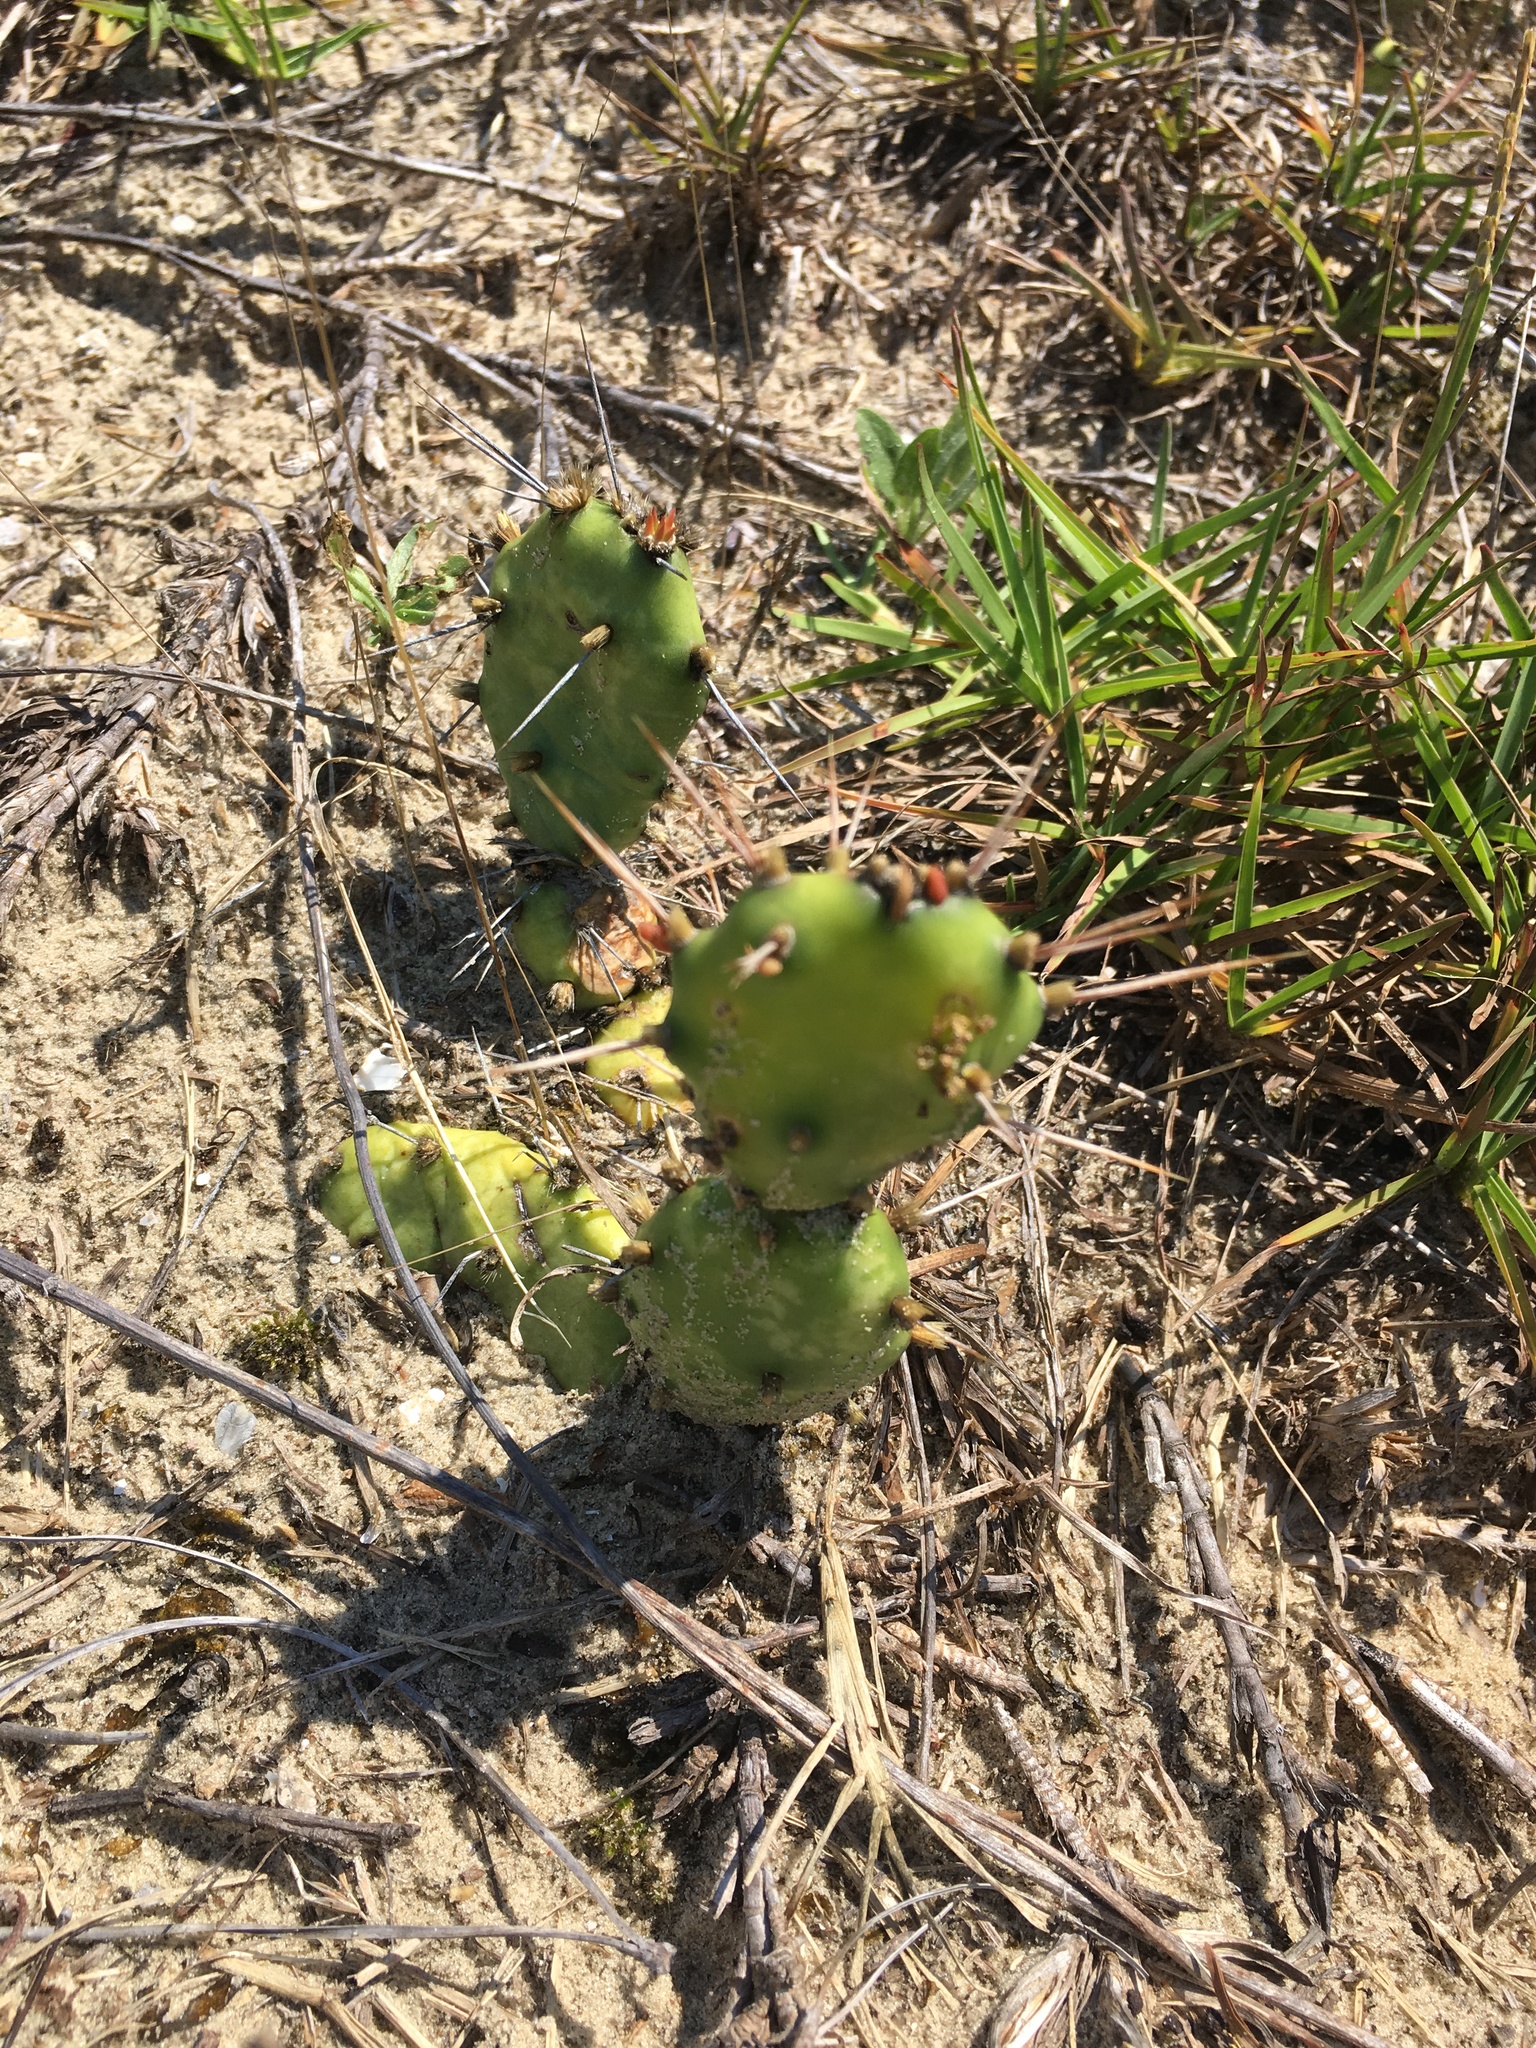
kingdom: Plantae
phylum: Tracheophyta
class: Magnoliopsida
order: Caryophyllales
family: Cactaceae
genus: Opuntia
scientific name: Opuntia drummondii
